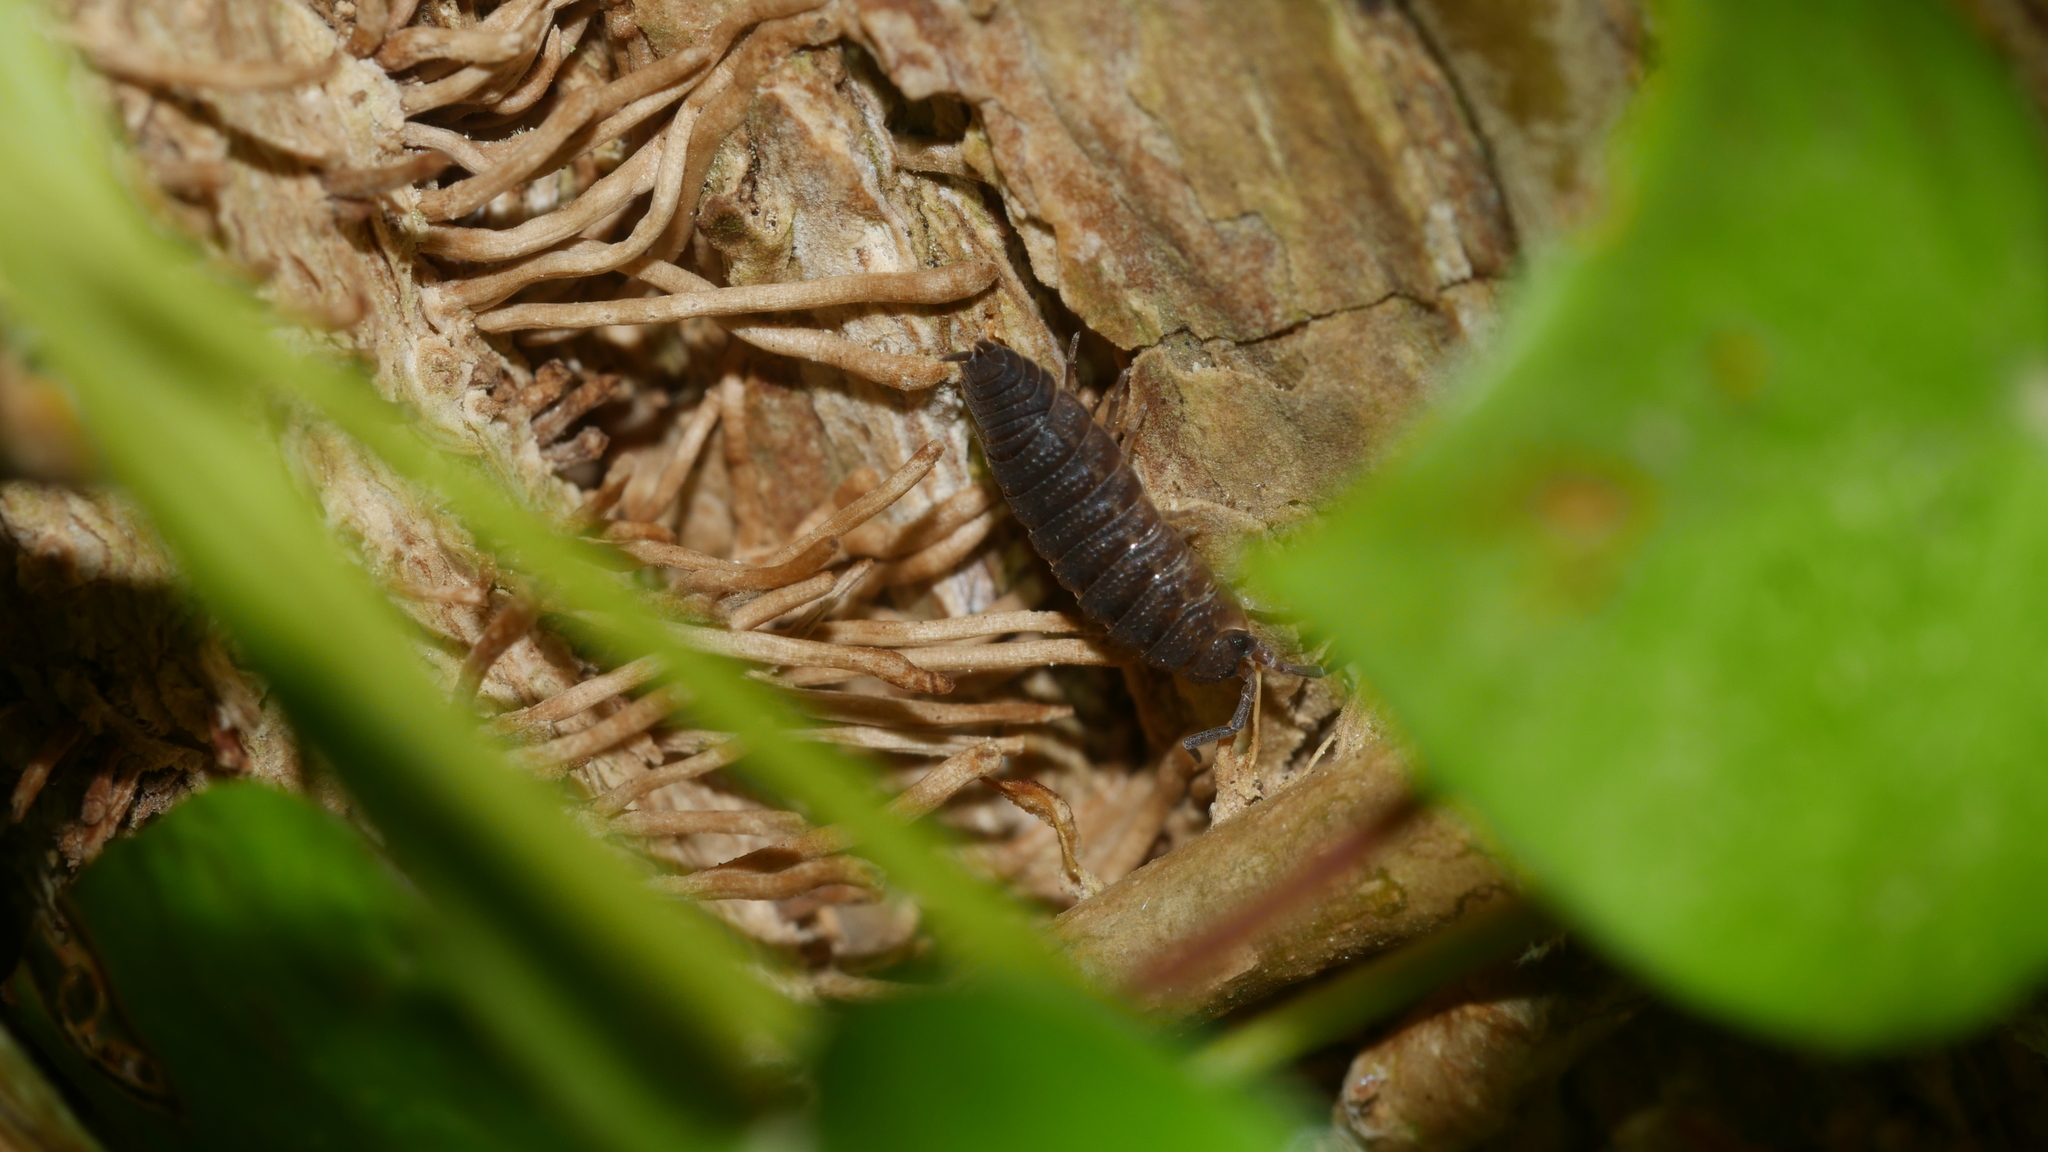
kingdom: Animalia
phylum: Arthropoda
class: Malacostraca
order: Isopoda
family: Porcellionidae
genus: Porcellio
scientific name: Porcellio scaber
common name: Common rough woodlouse
